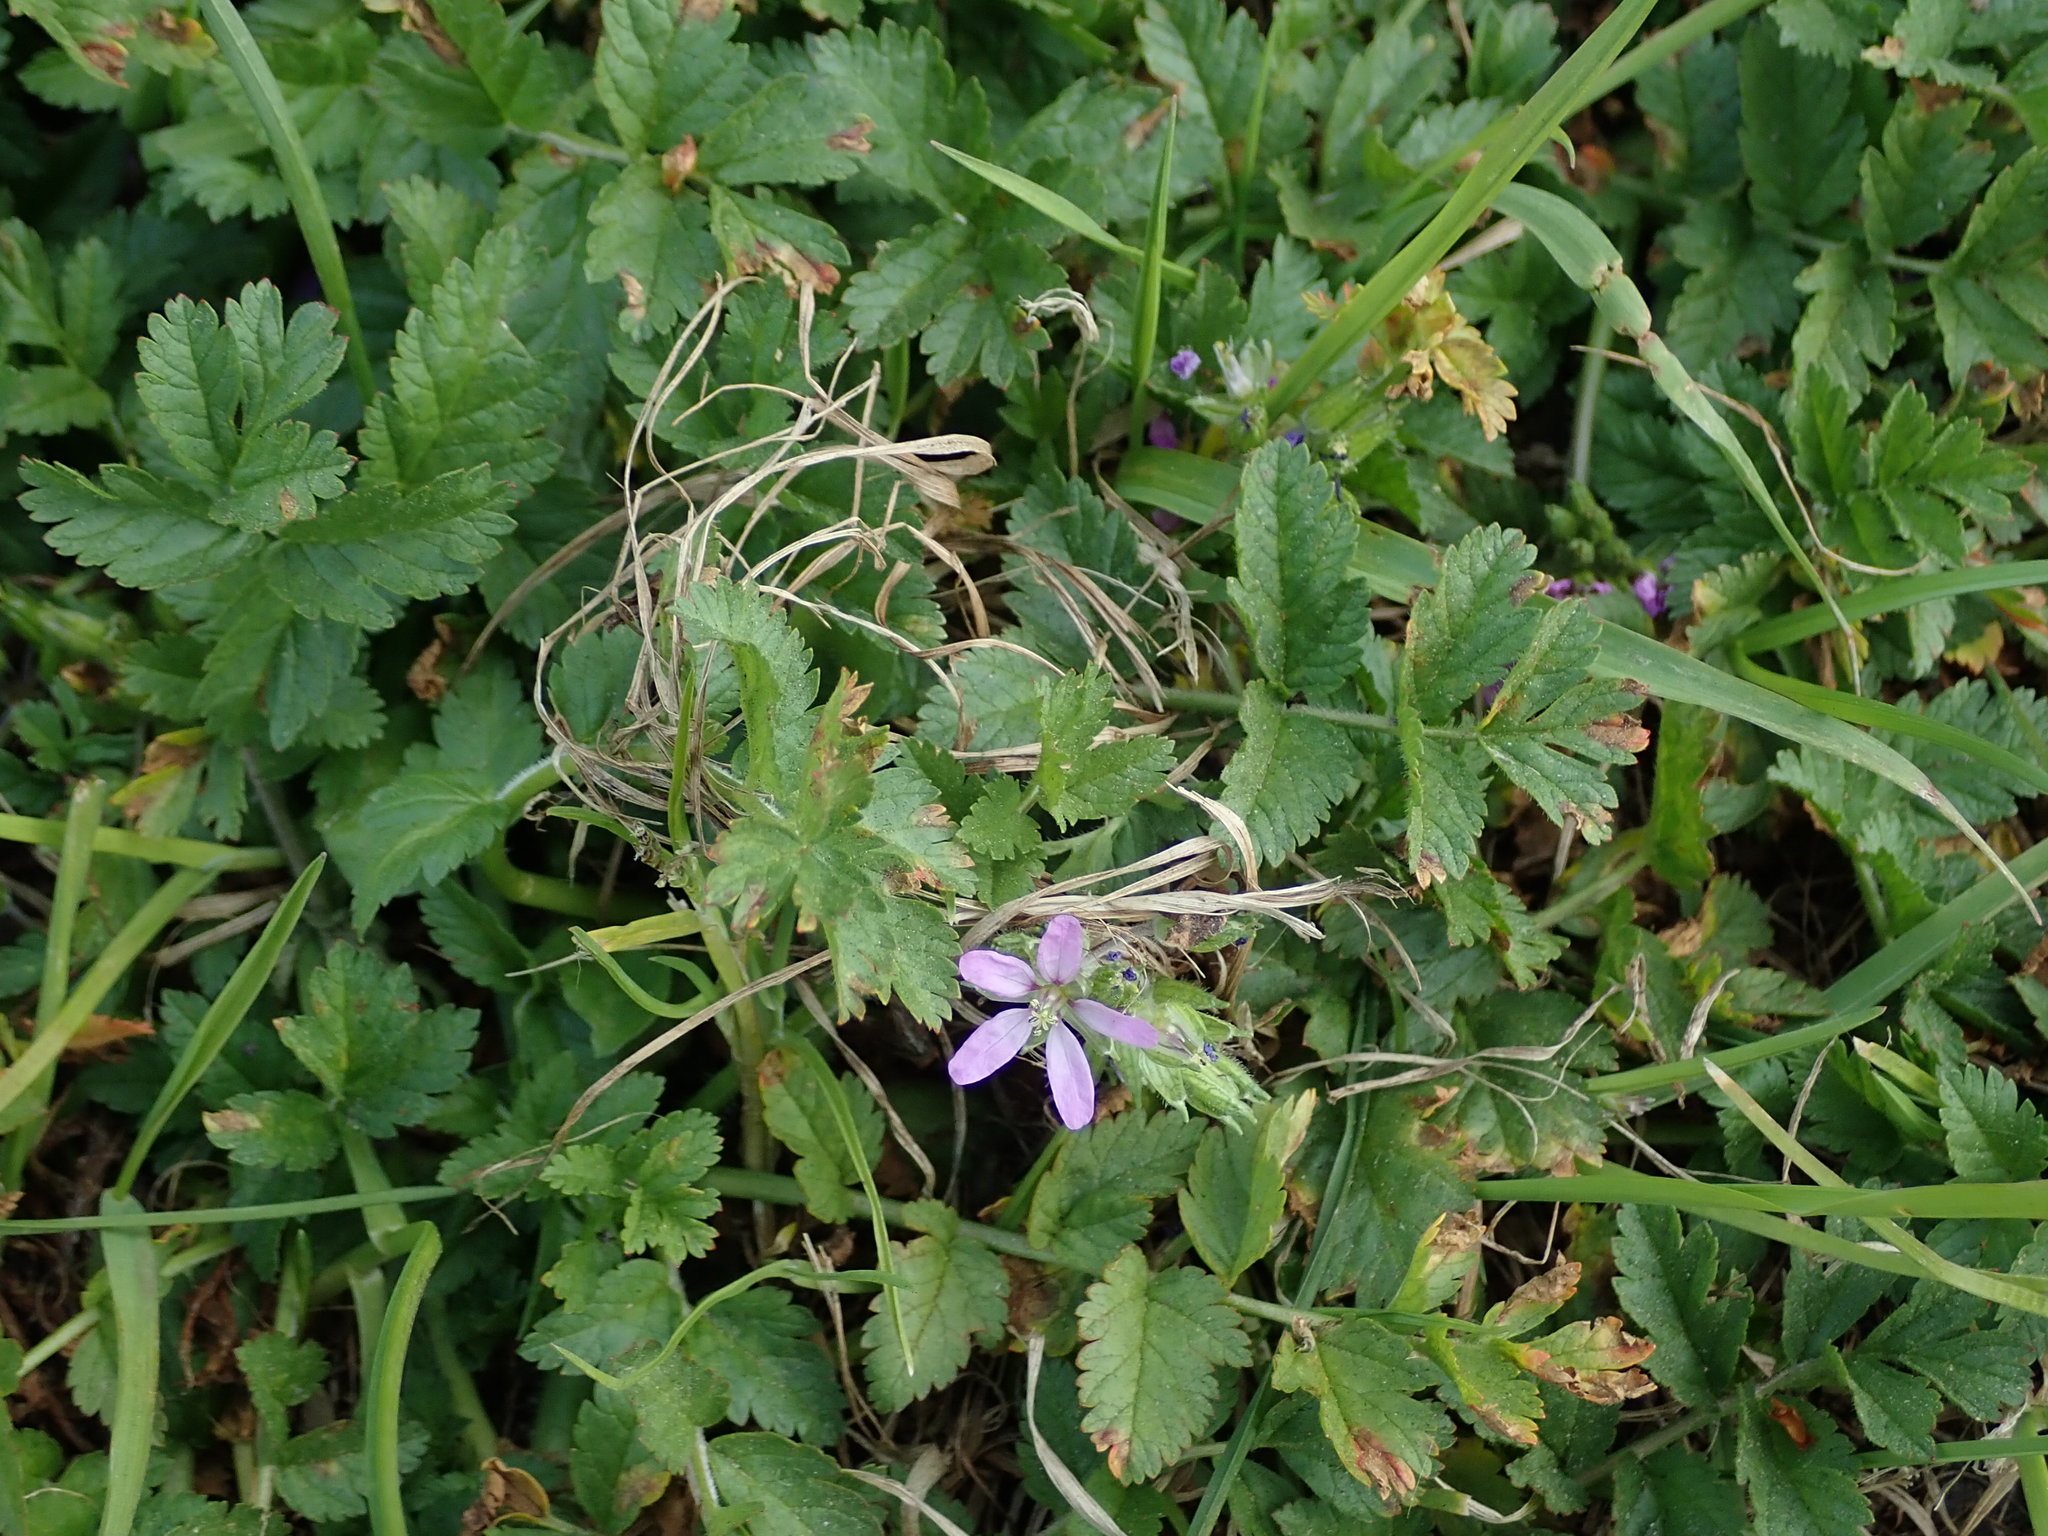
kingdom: Plantae
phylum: Tracheophyta
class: Magnoliopsida
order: Geraniales
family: Geraniaceae
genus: Erodium
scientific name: Erodium moschatum
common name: Musk stork's-bill
